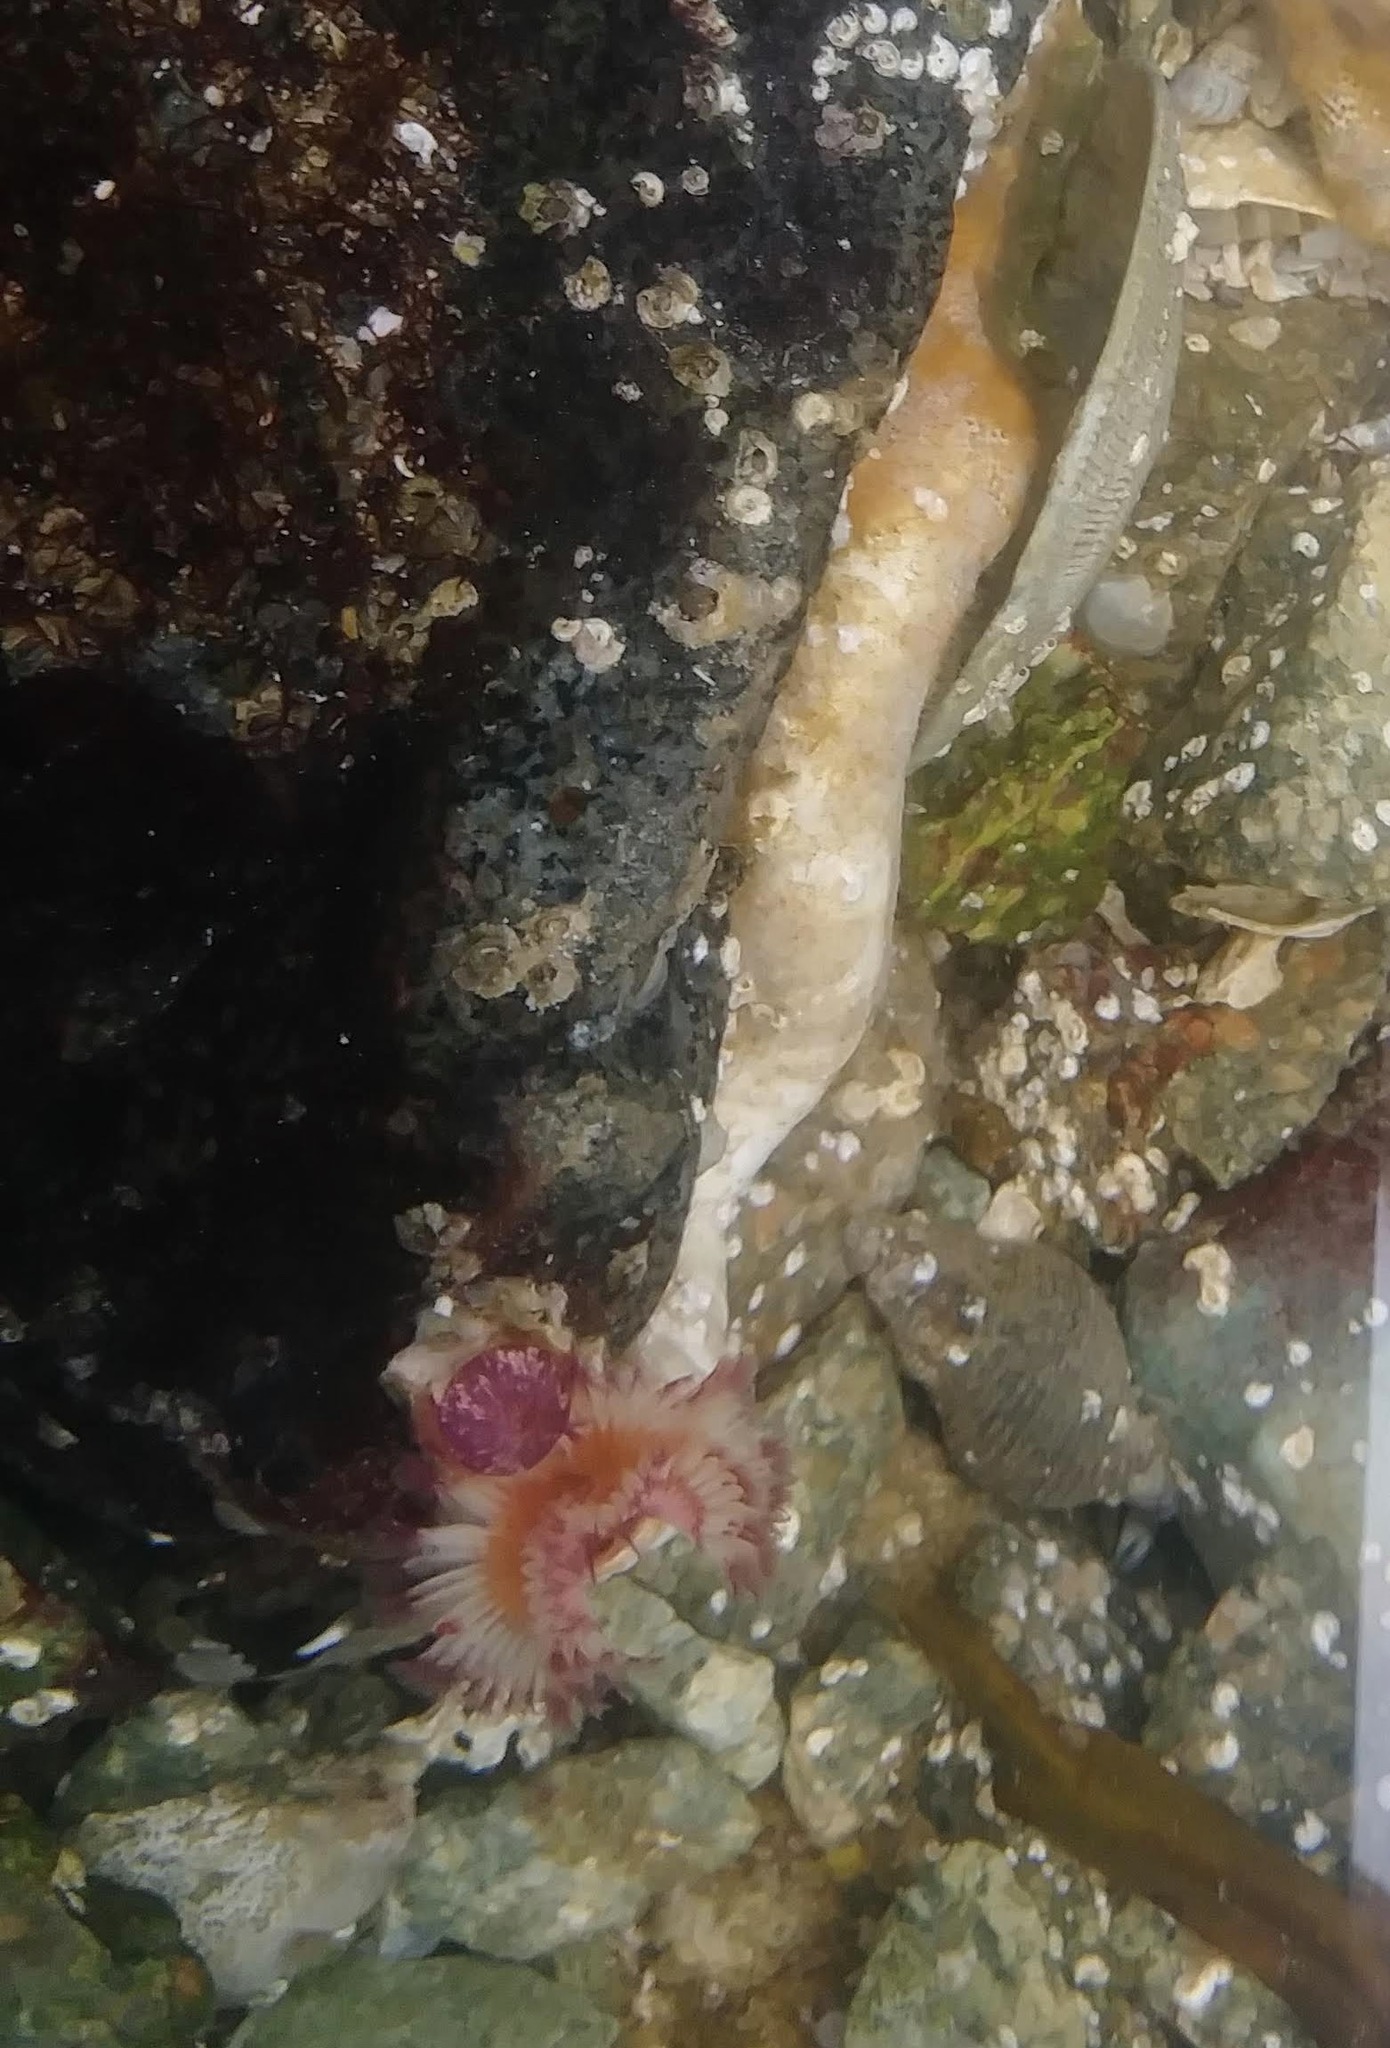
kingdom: Animalia
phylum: Annelida
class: Polychaeta
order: Sabellida
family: Serpulidae
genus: Serpula
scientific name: Serpula columbiana
